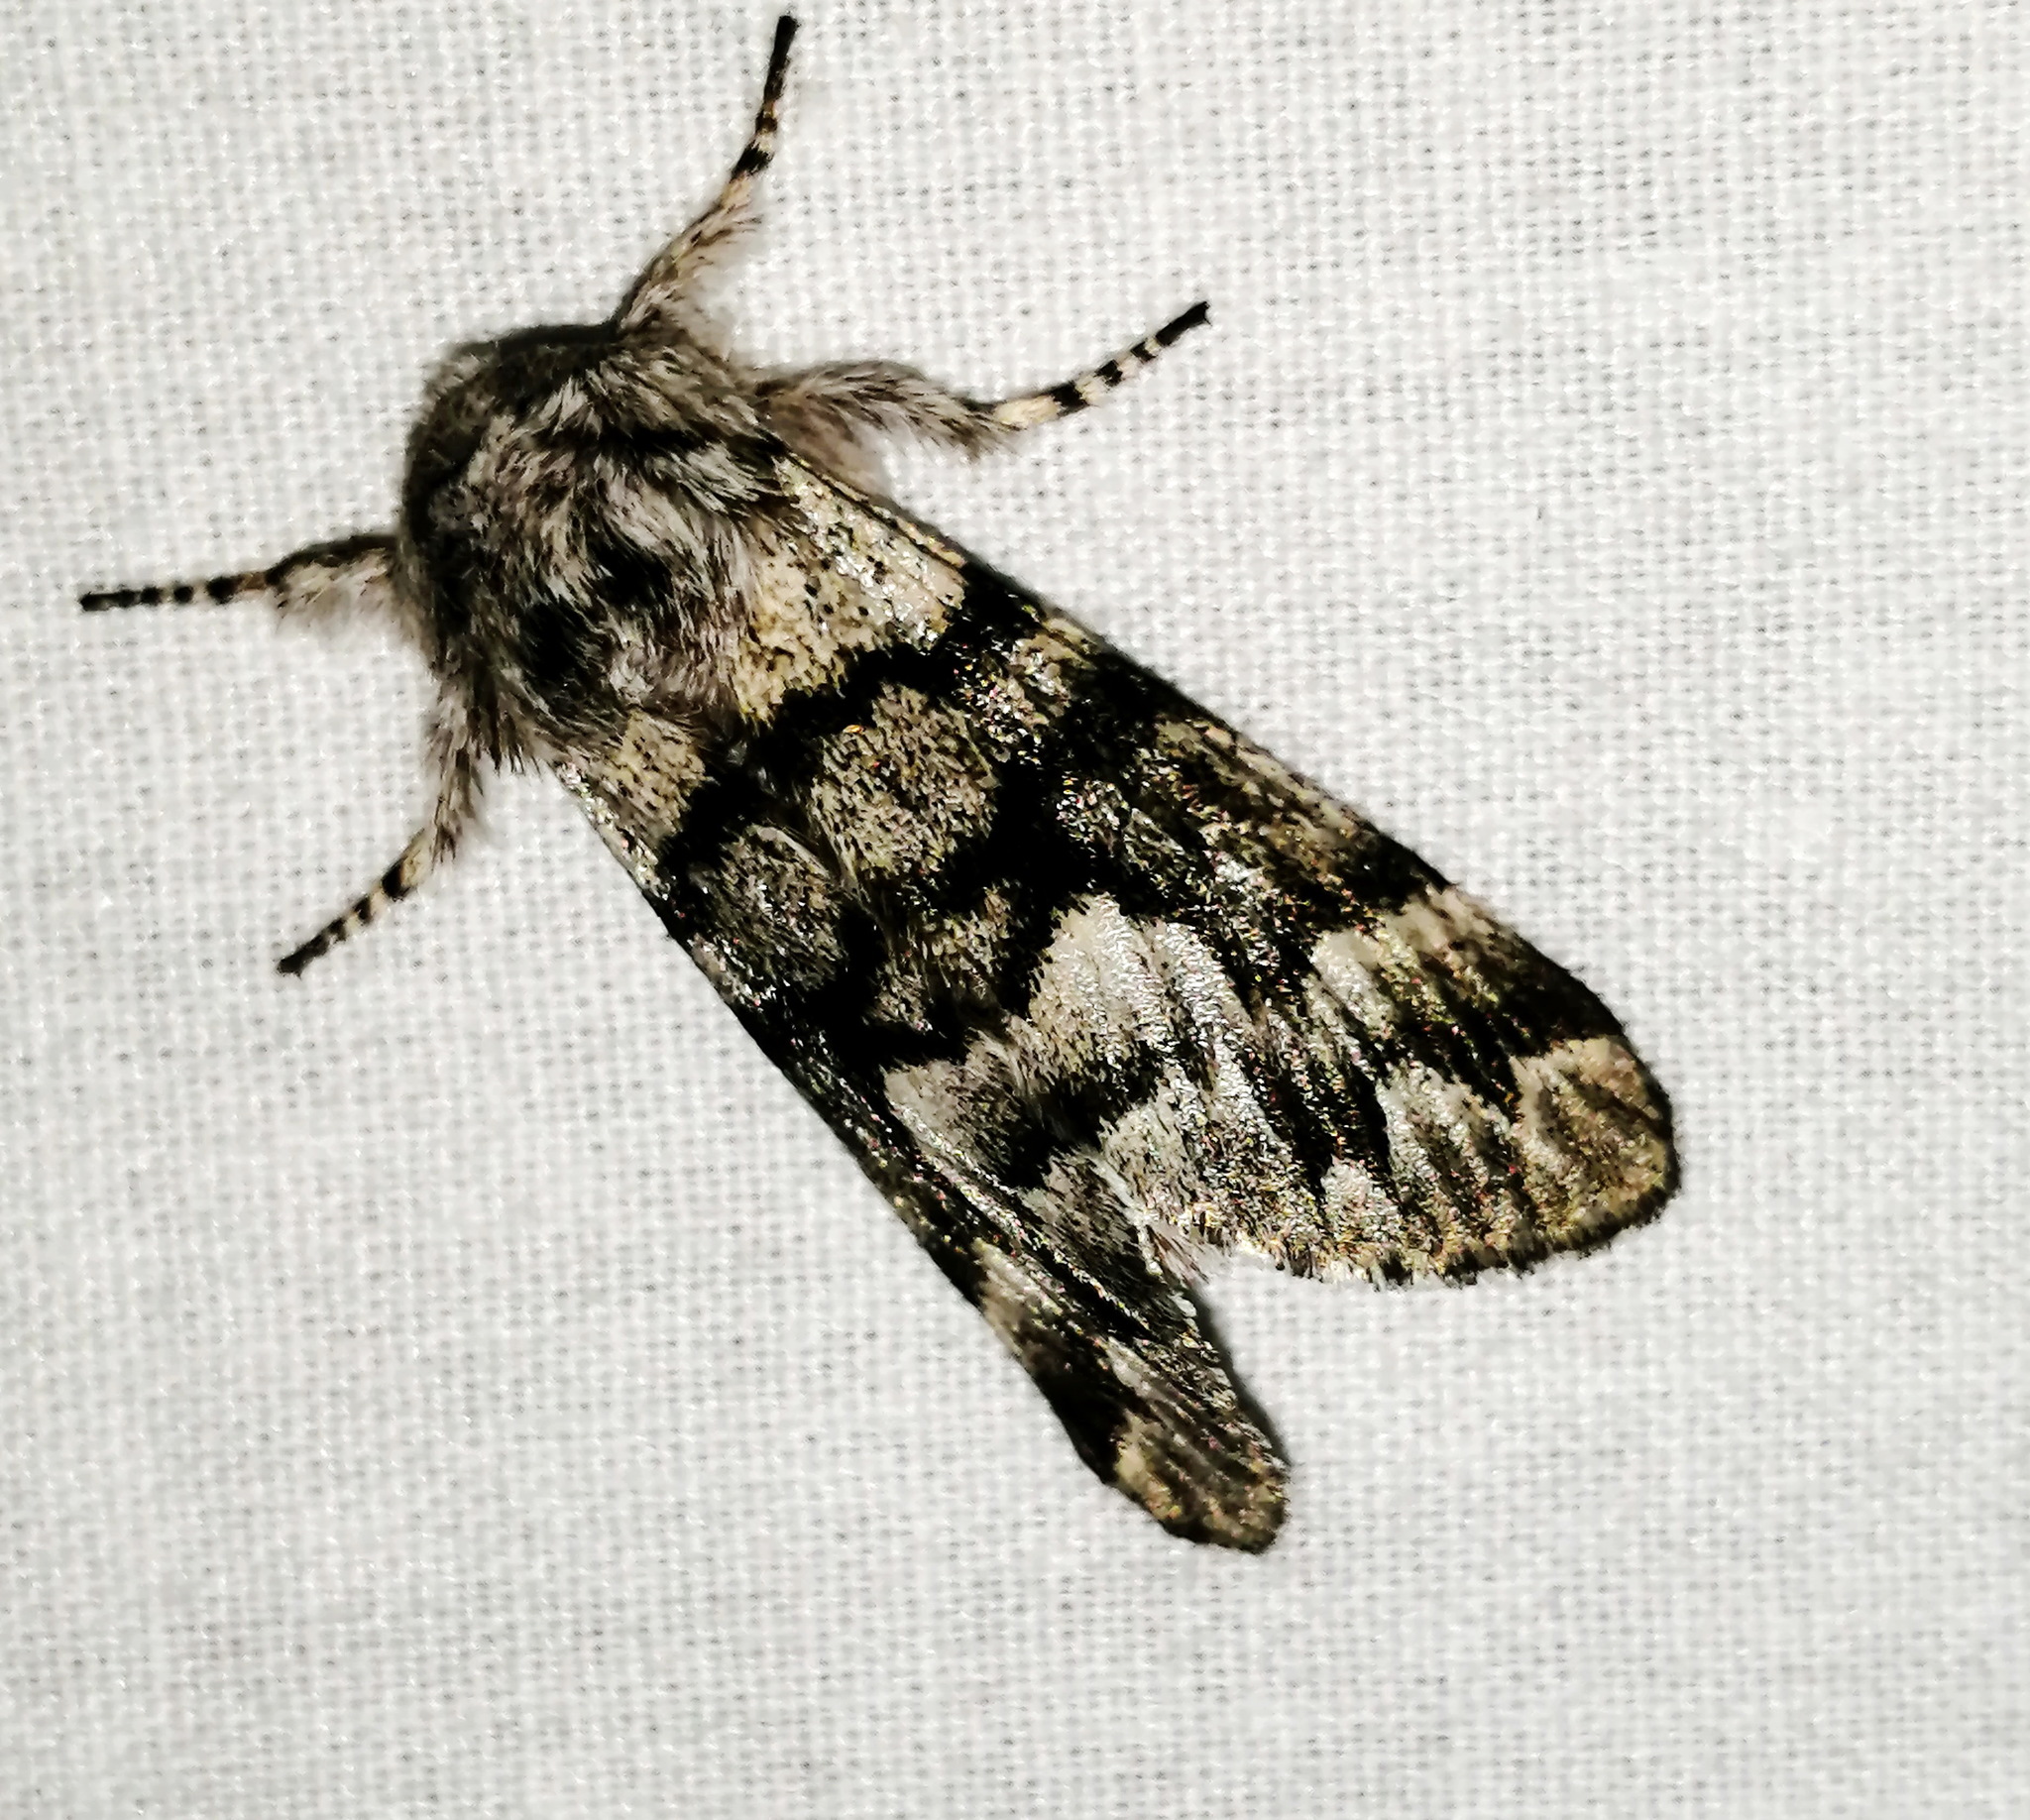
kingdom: Animalia
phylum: Arthropoda
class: Insecta
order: Lepidoptera
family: Noctuidae
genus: Panthea
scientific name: Panthea furcilla
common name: Eastern panthea moth
